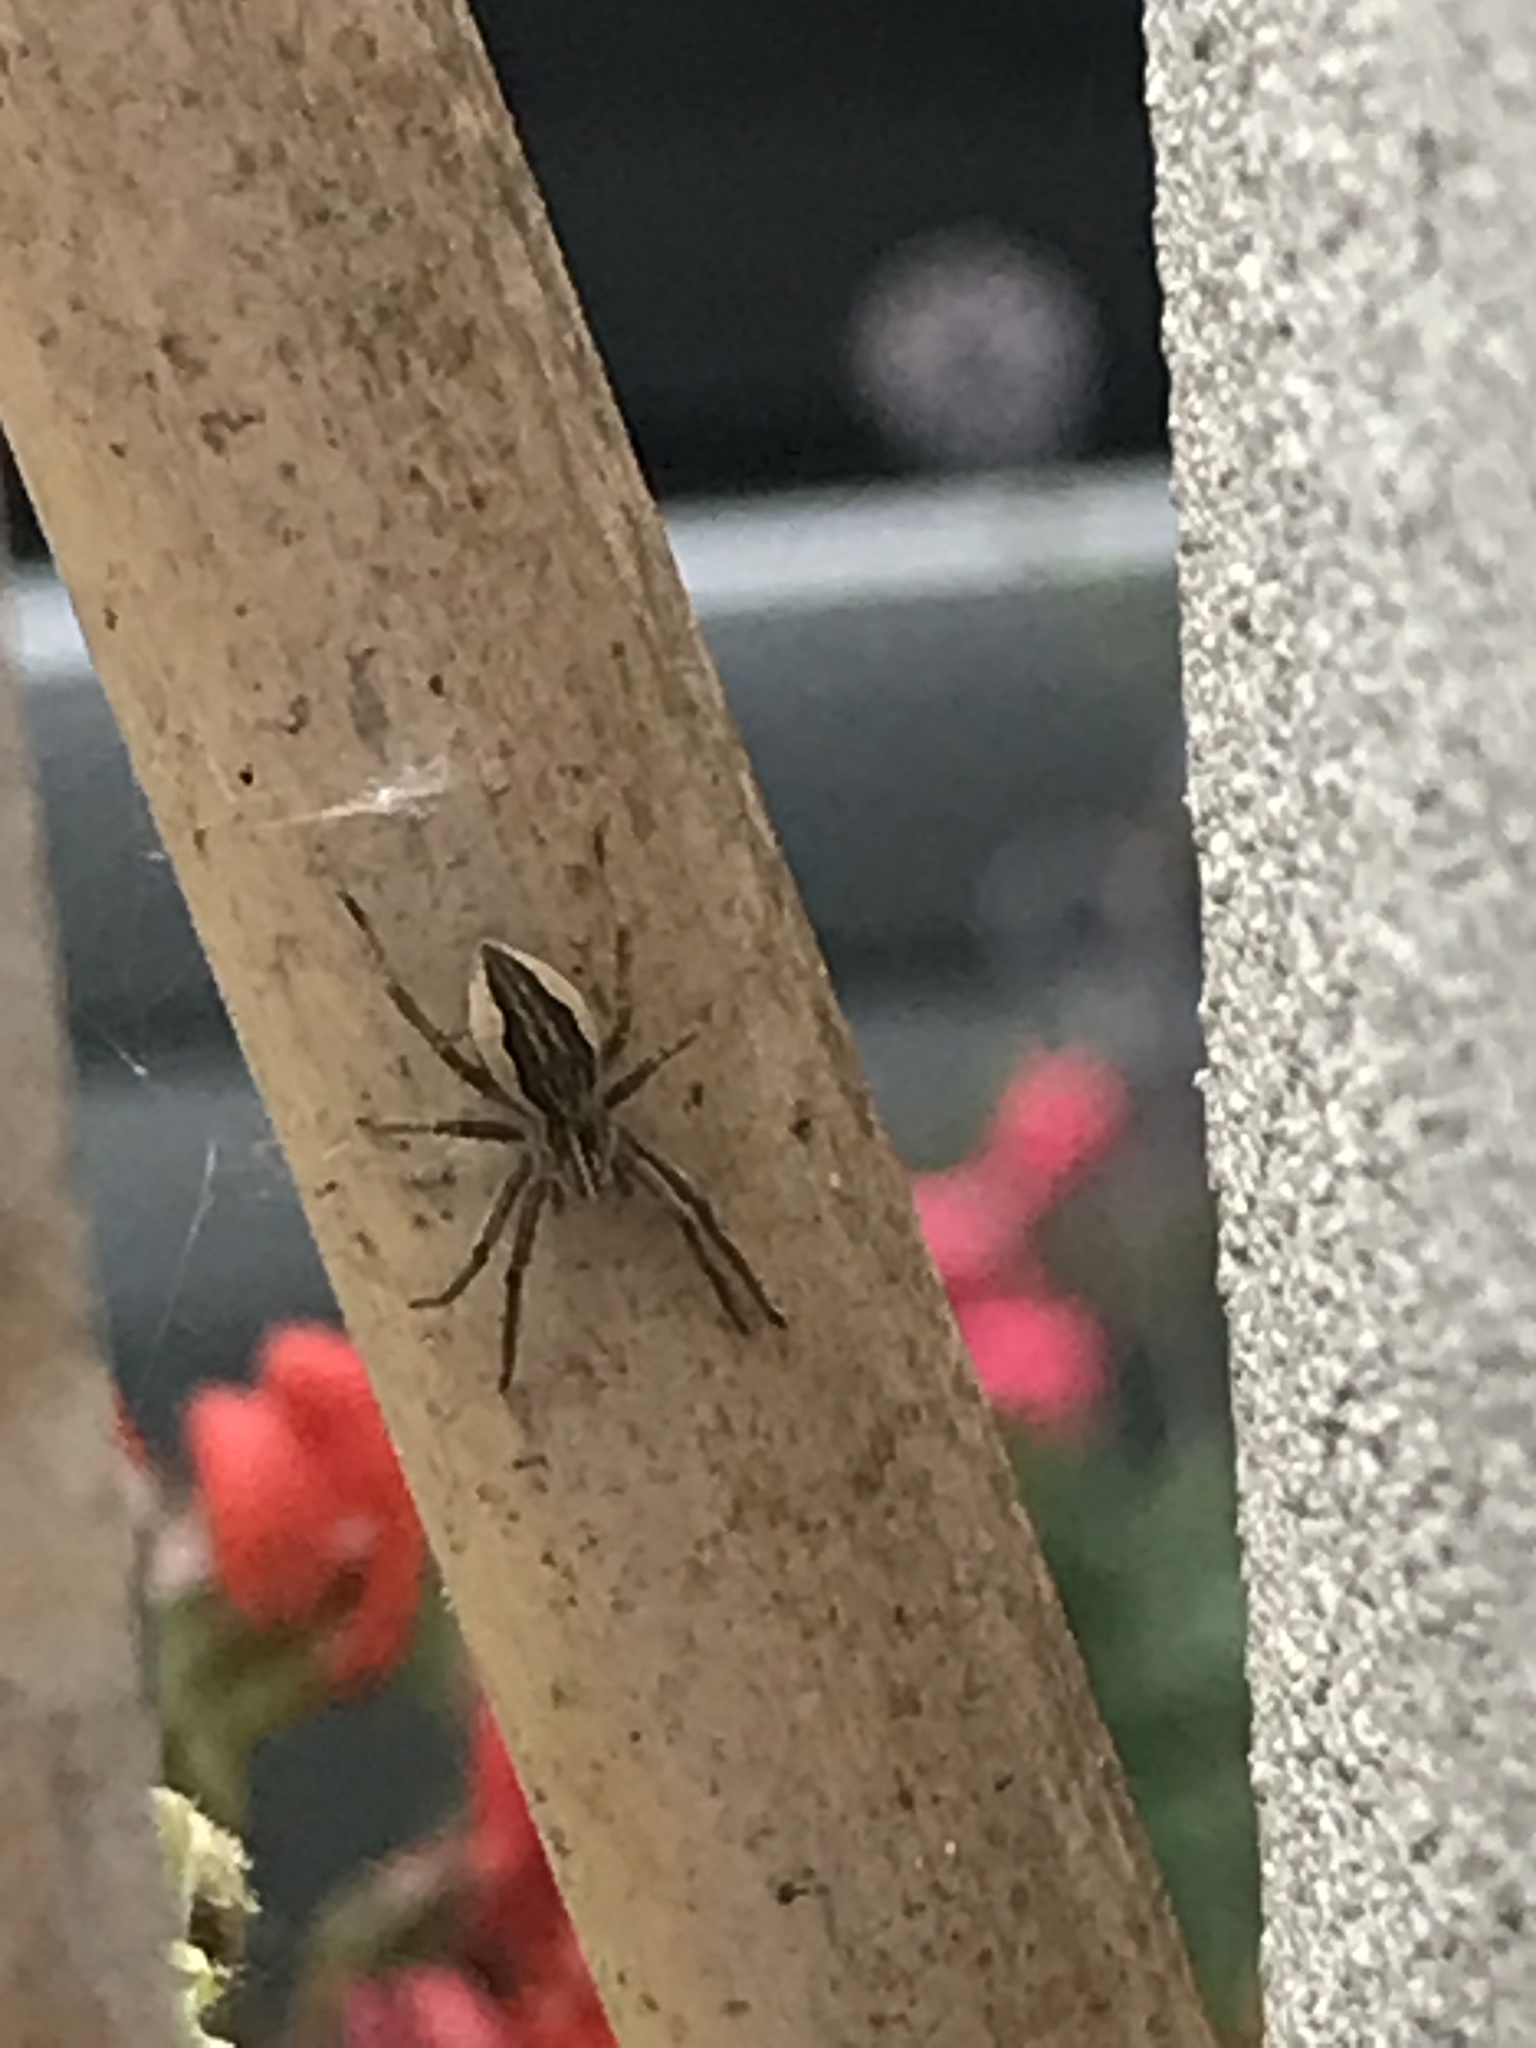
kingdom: Animalia
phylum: Arthropoda
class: Arachnida
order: Araneae
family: Pisauridae
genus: Pisaura
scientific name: Pisaura mirabilis
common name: Tent spider
